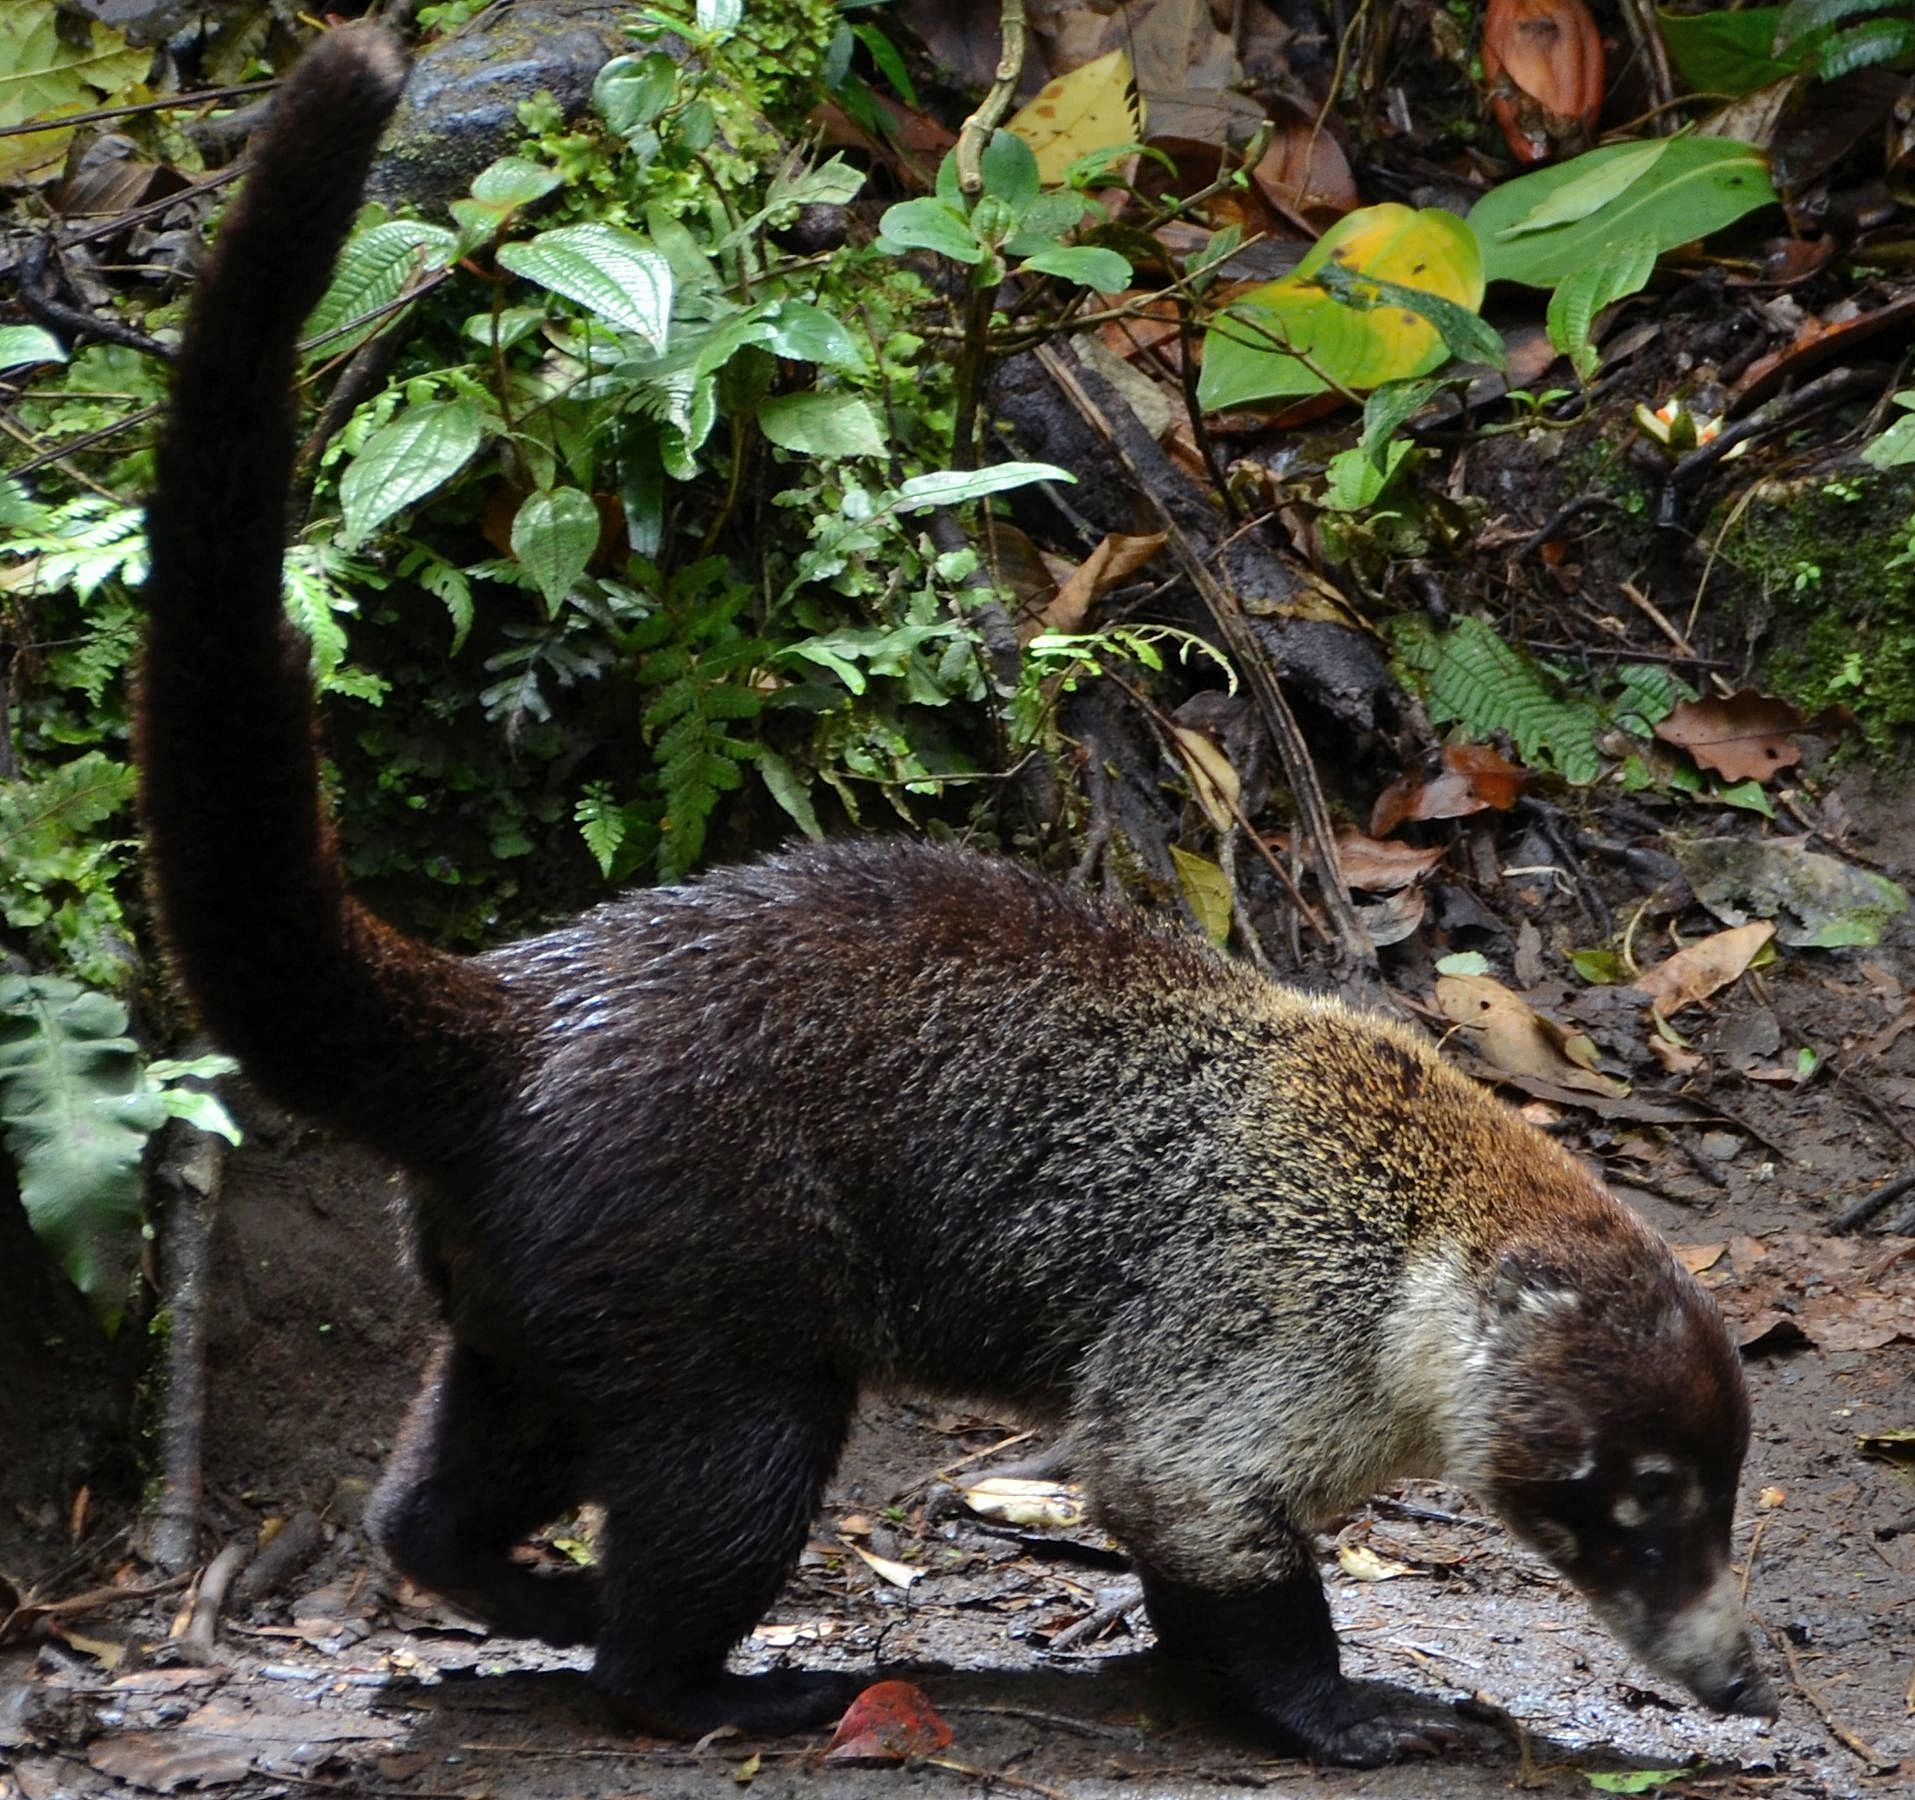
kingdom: Animalia
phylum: Chordata
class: Mammalia
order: Carnivora
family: Procyonidae
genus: Nasua
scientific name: Nasua narica
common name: White-nosed coati
